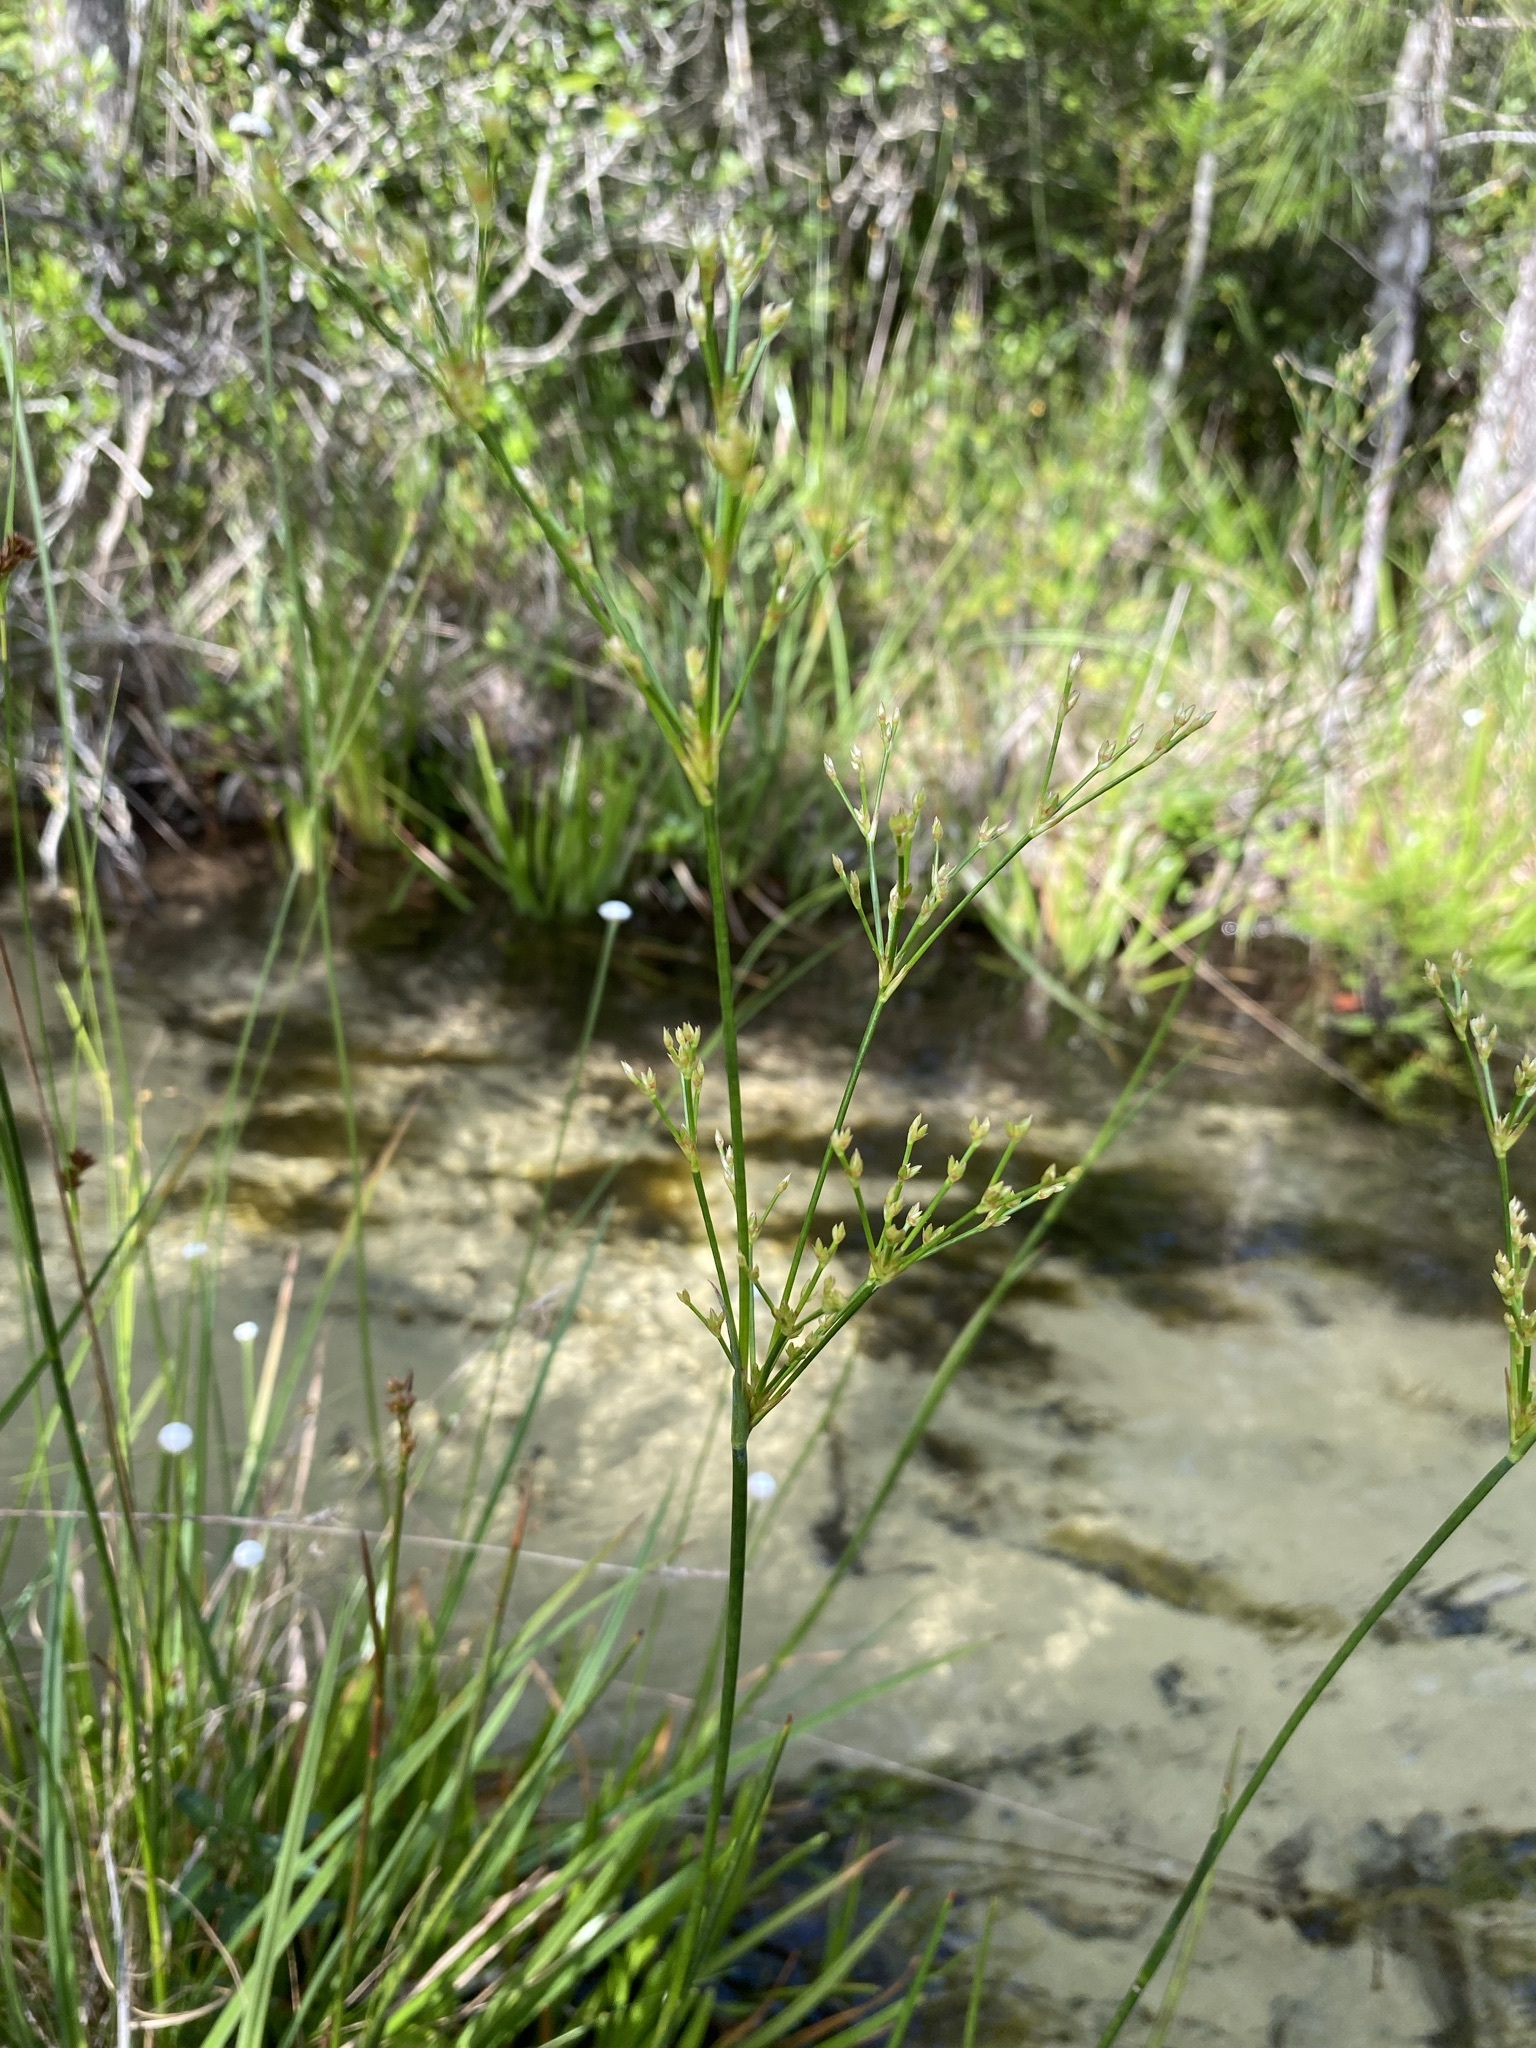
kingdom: Plantae
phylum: Tracheophyta
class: Liliopsida
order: Poales
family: Juncaceae
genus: Juncus
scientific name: Juncus polycephalus
